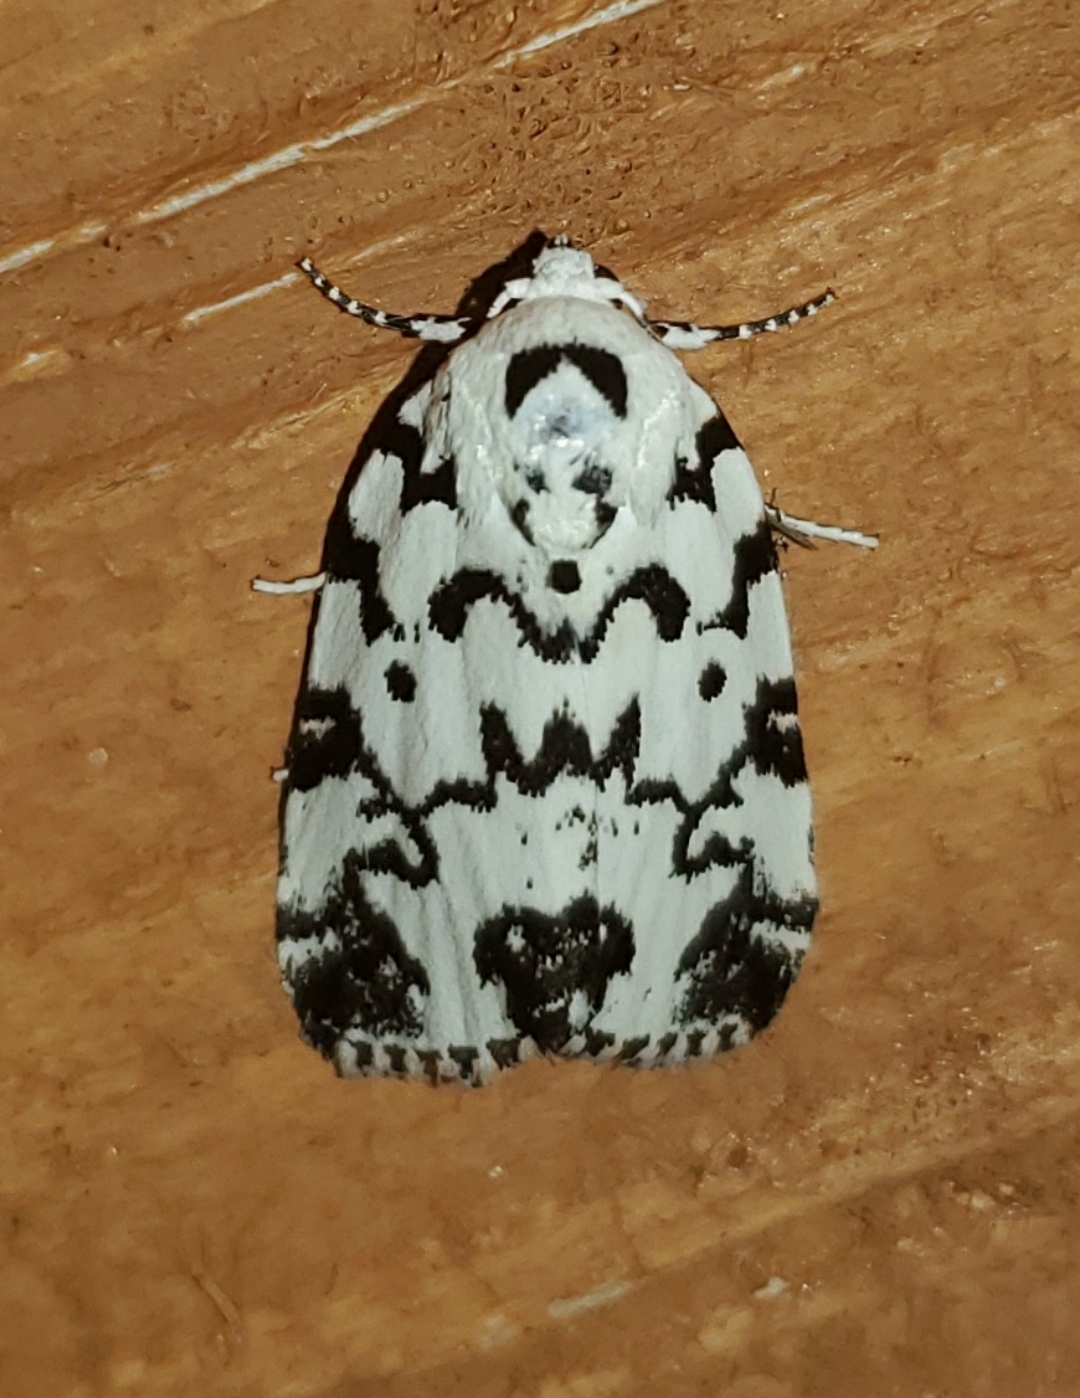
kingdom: Animalia
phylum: Arthropoda
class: Insecta
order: Lepidoptera
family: Noctuidae
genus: Polygrammate
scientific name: Polygrammate hebraeicum
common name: Hebrew moth
